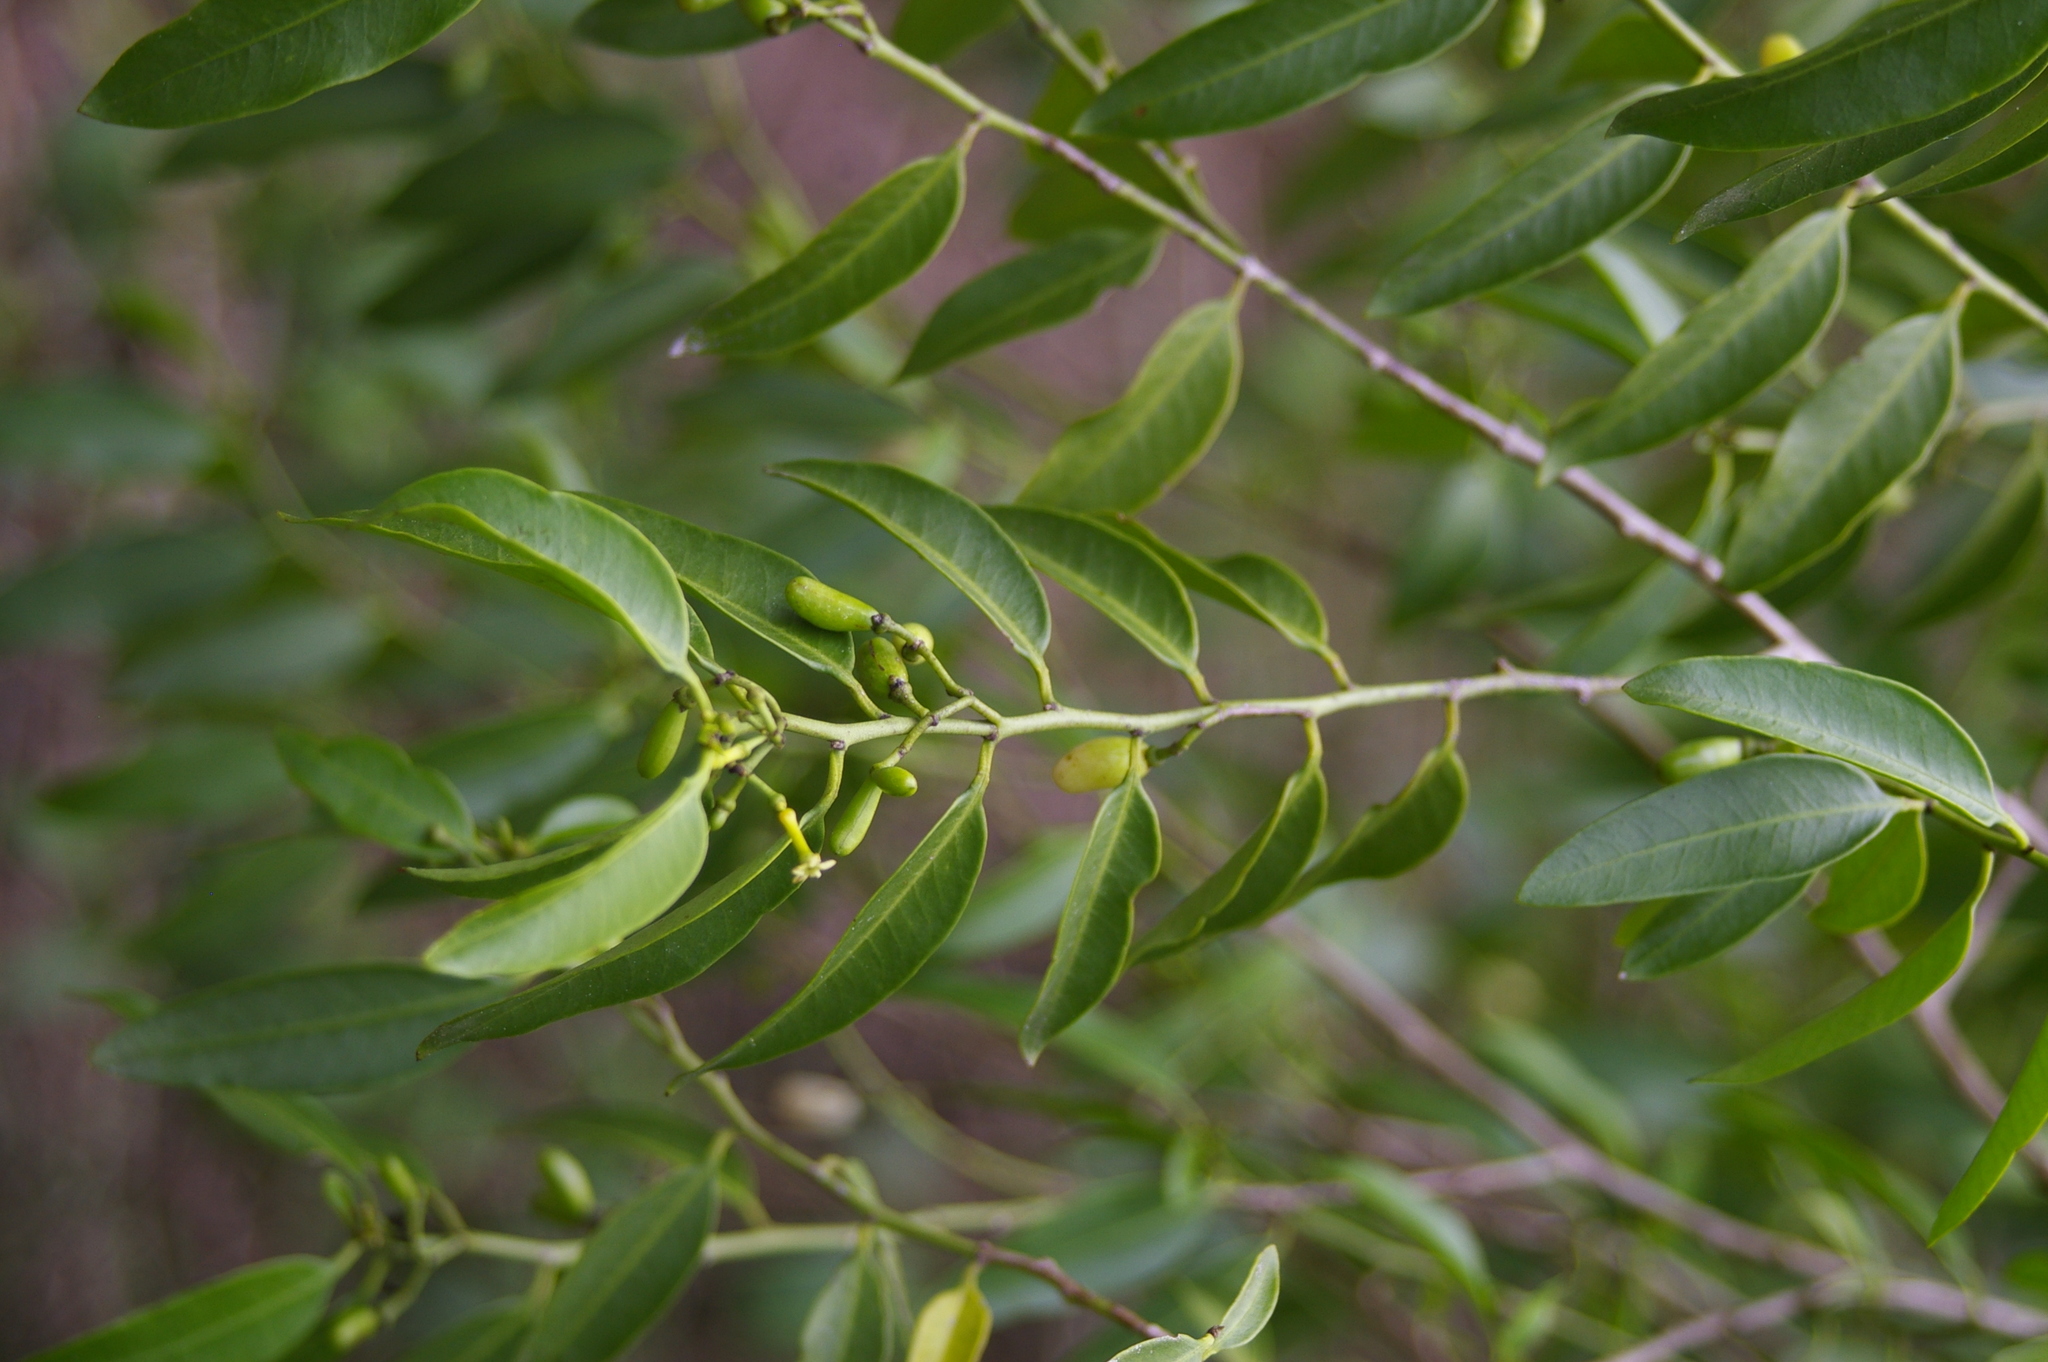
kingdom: Plantae
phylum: Tracheophyta
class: Magnoliopsida
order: Gentianales
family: Apocynaceae
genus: Vallesia
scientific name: Vallesia glabra
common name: Pearlberry
